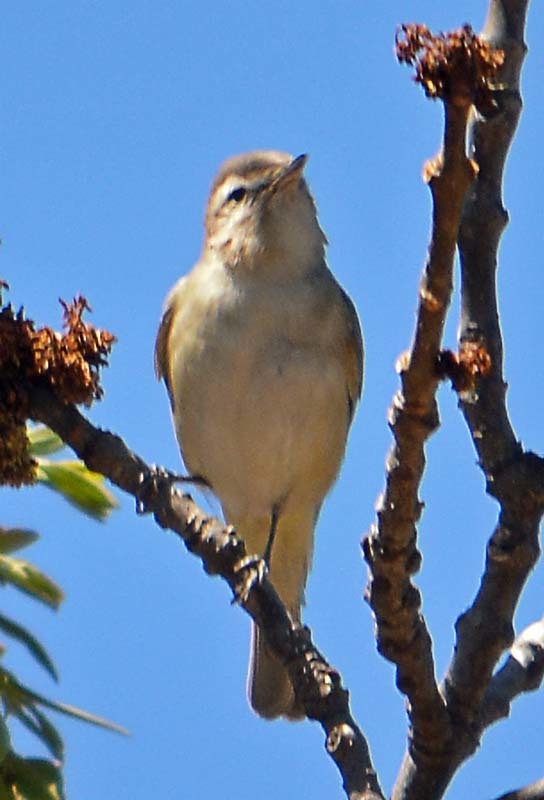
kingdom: Animalia
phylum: Chordata
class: Aves
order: Passeriformes
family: Vireonidae
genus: Vireo
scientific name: Vireo gilvus
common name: Warbling vireo
